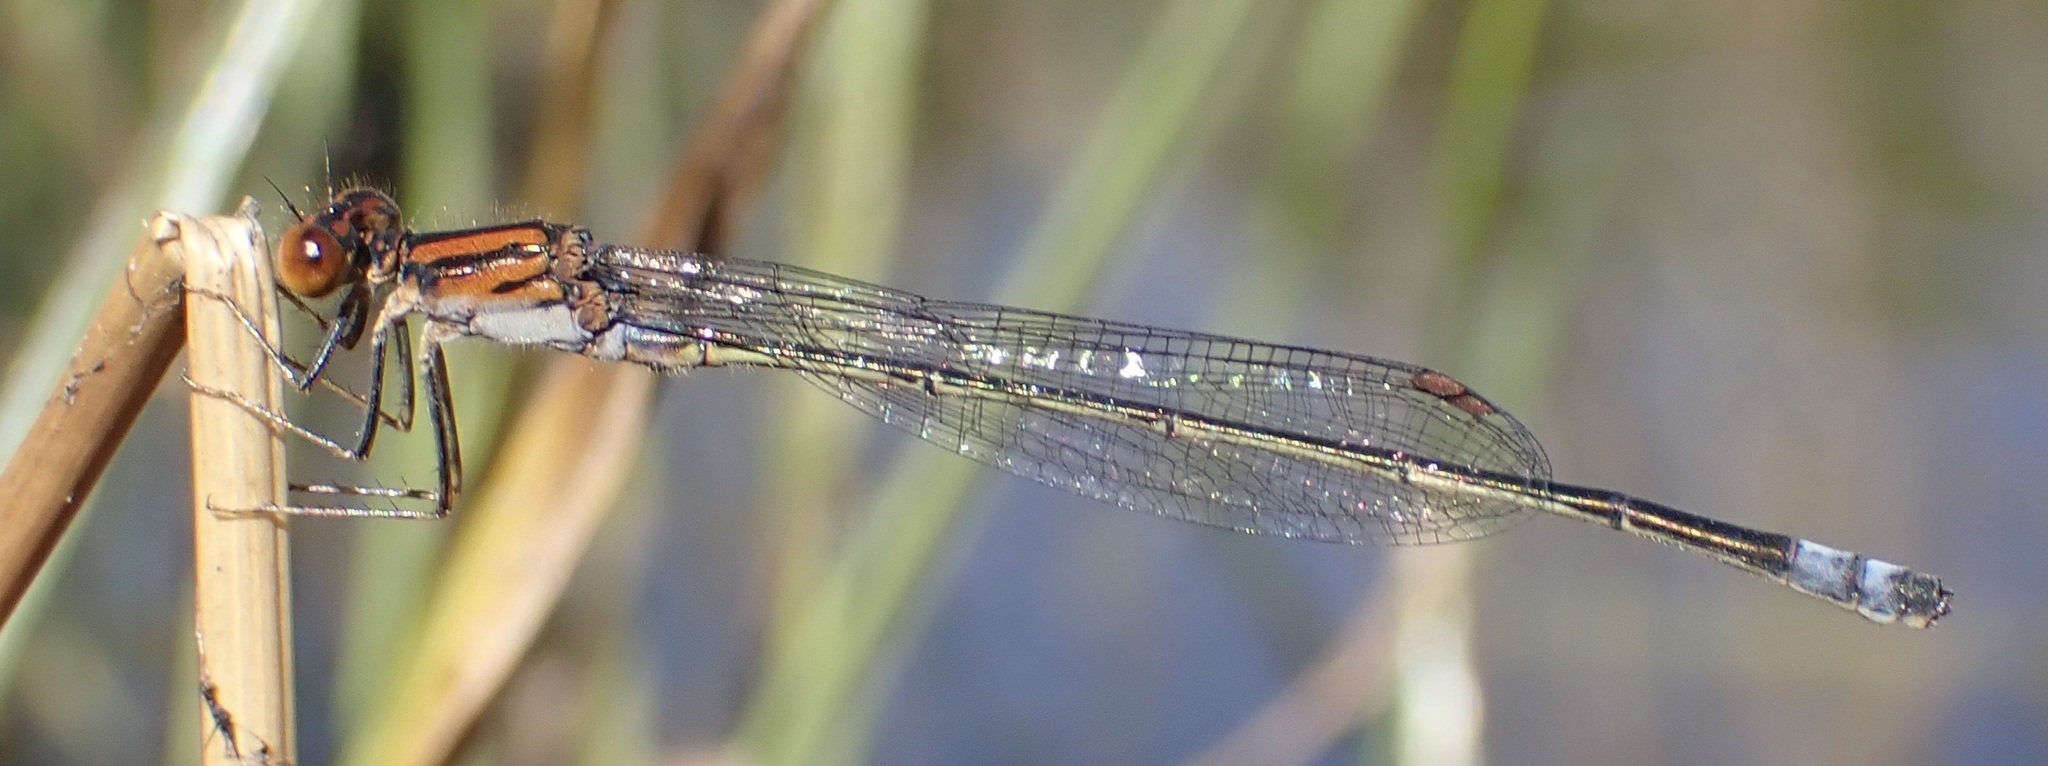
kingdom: Animalia
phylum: Arthropoda
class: Insecta
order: Odonata
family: Coenagrionidae
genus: Pseudagrion
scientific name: Pseudagrion rufostigma
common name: Dark sprite
